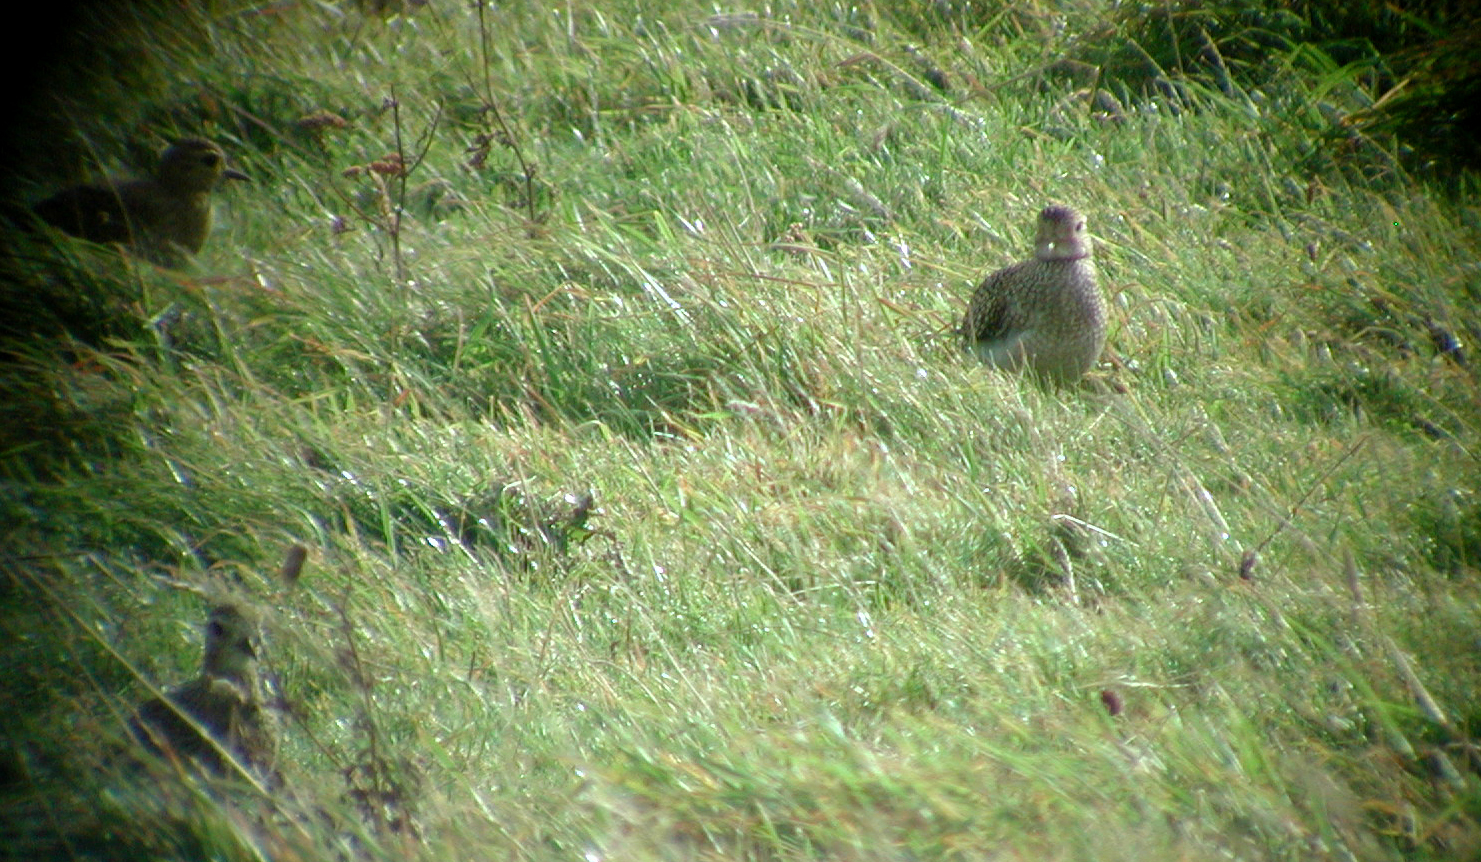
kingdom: Animalia
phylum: Chordata
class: Aves
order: Charadriiformes
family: Charadriidae
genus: Pluvialis
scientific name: Pluvialis apricaria
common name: European golden plover
